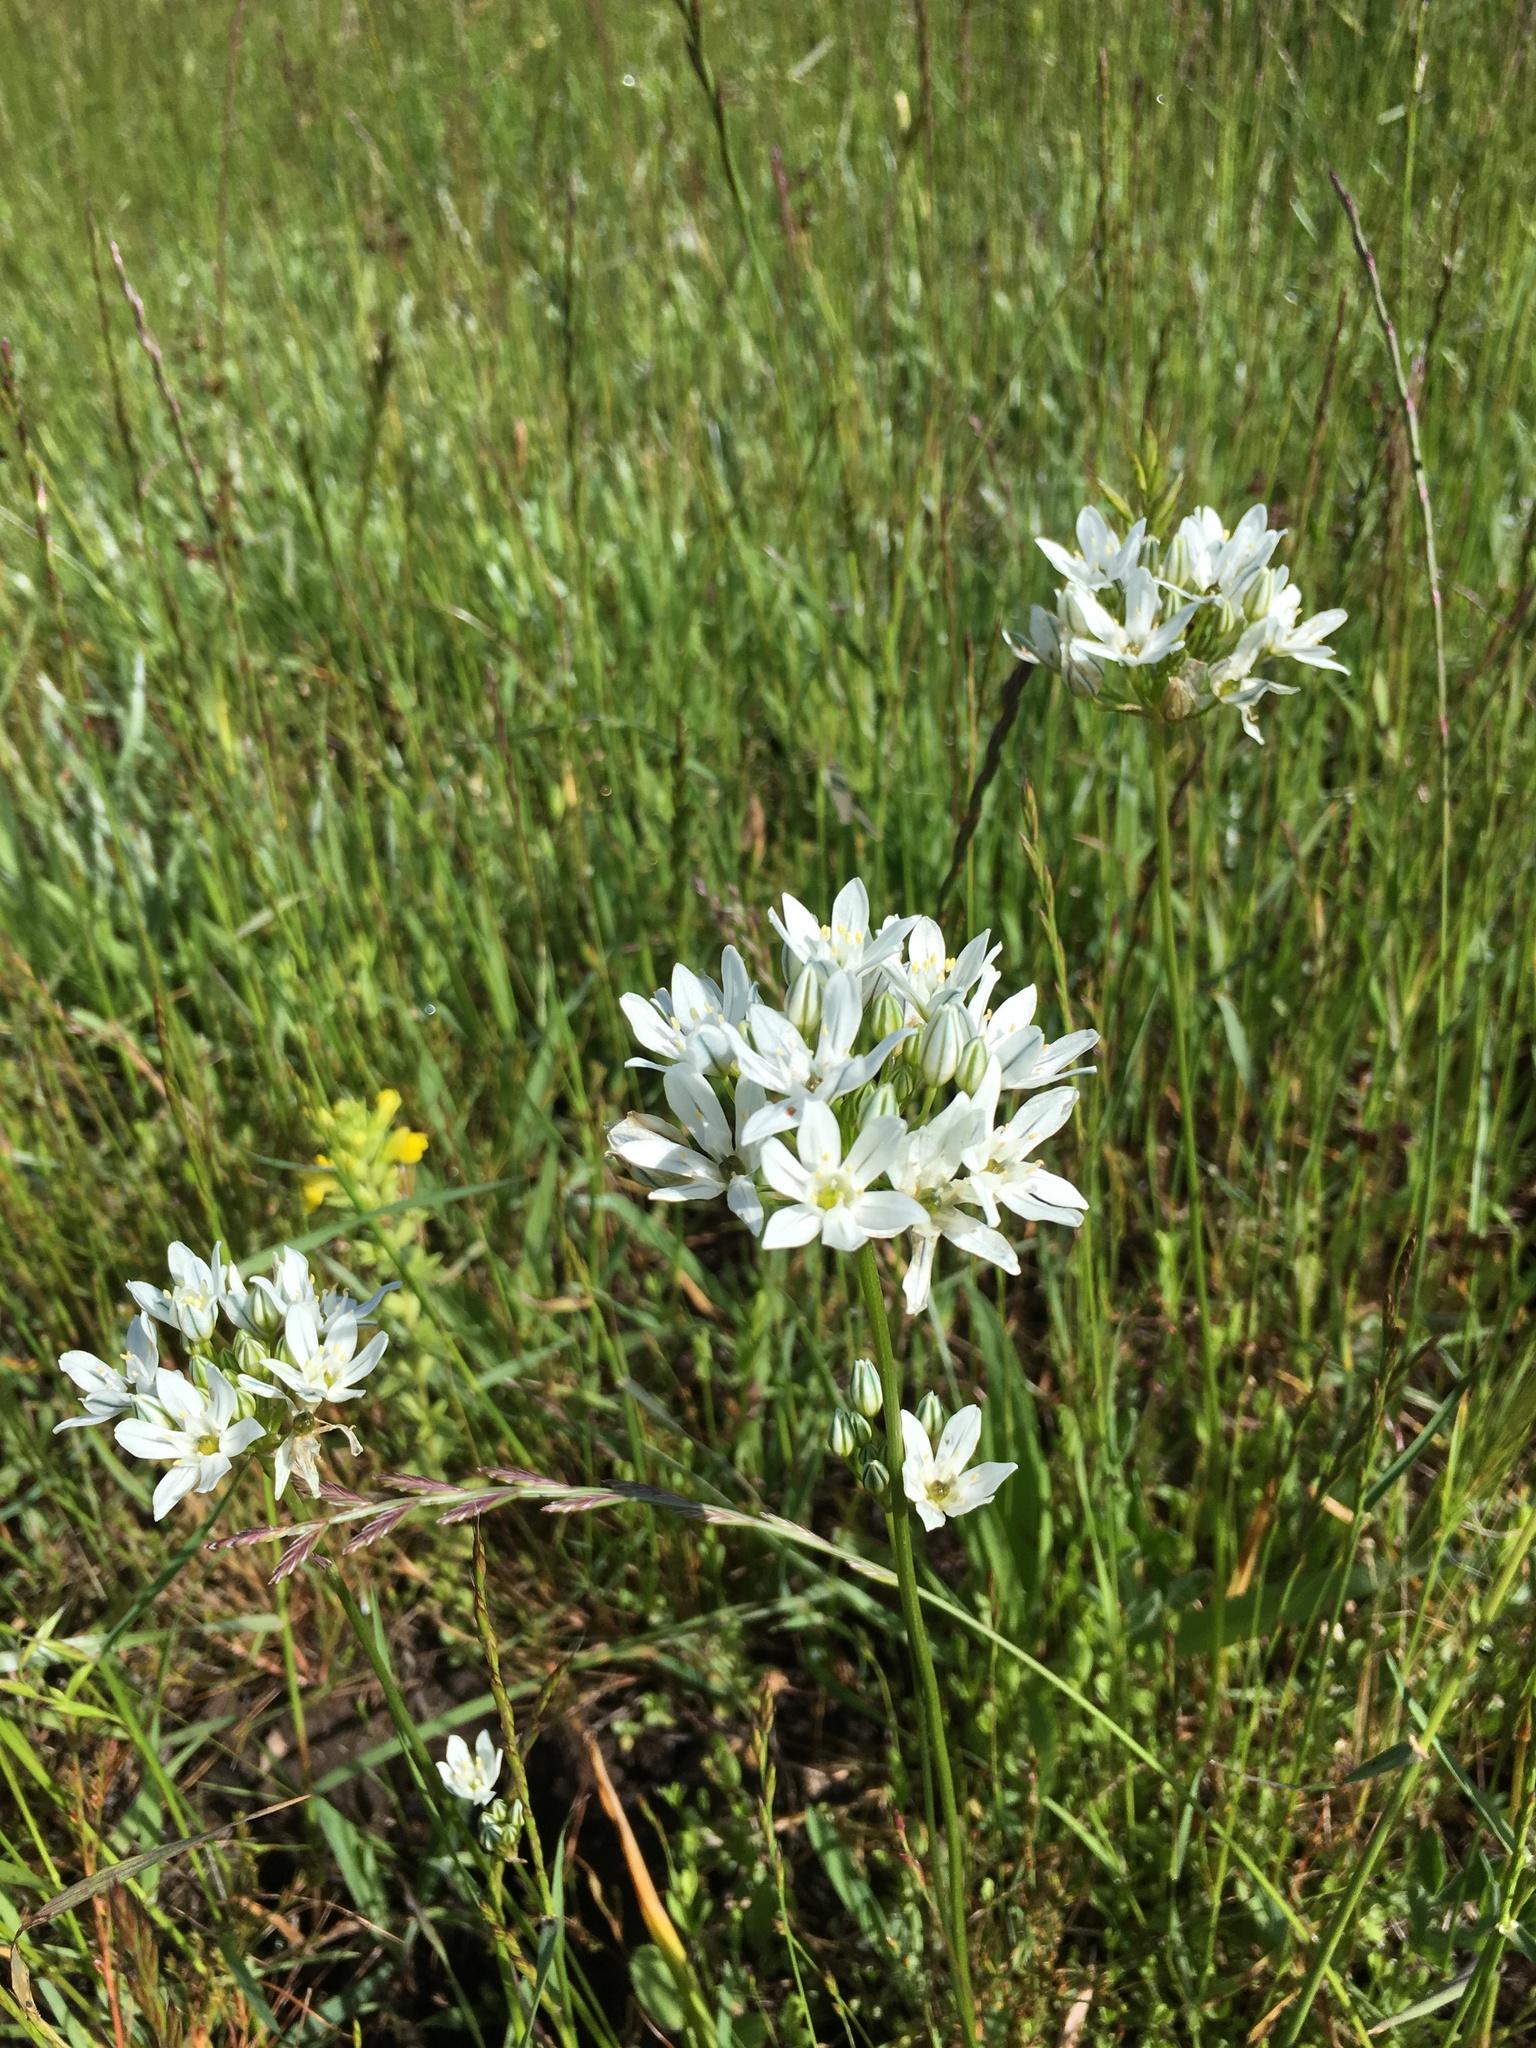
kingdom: Plantae
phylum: Tracheophyta
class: Liliopsida
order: Asparagales
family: Asparagaceae
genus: Triteleia
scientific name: Triteleia hyacinthina
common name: White brodiaea
